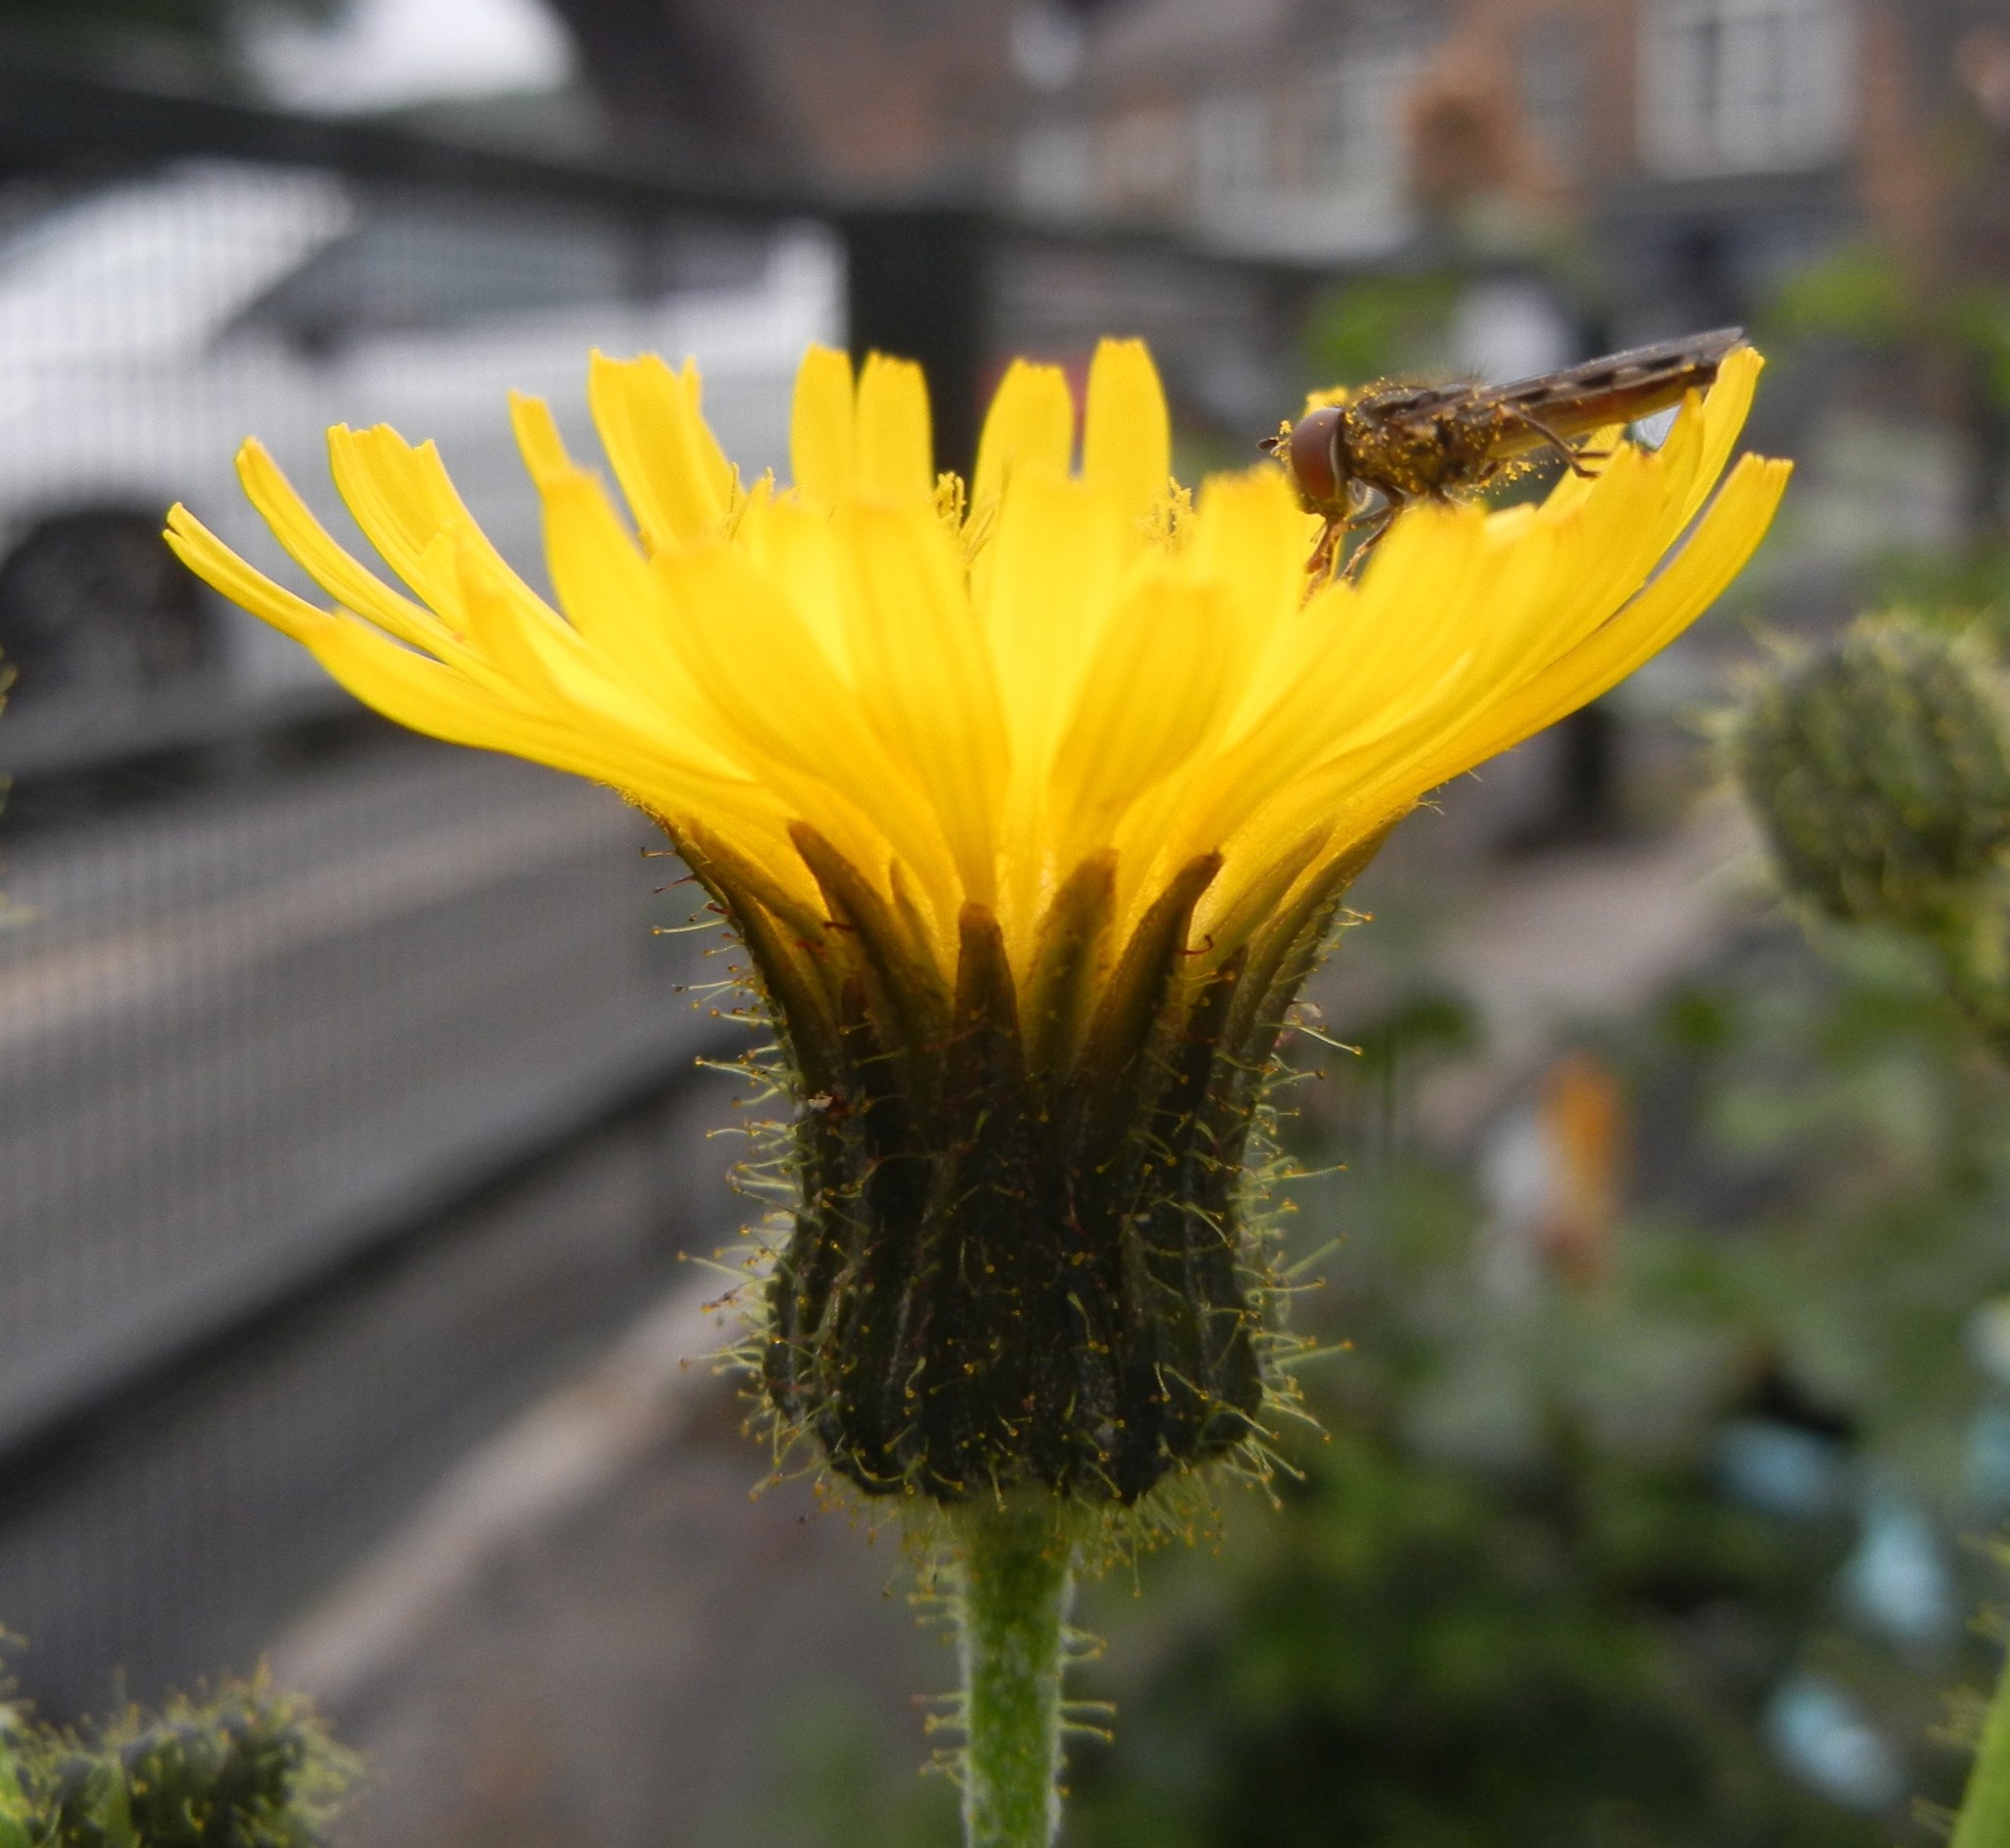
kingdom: Plantae
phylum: Tracheophyta
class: Magnoliopsida
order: Asterales
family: Asteraceae
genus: Sonchus
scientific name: Sonchus arvensis
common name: Perennial sow-thistle
